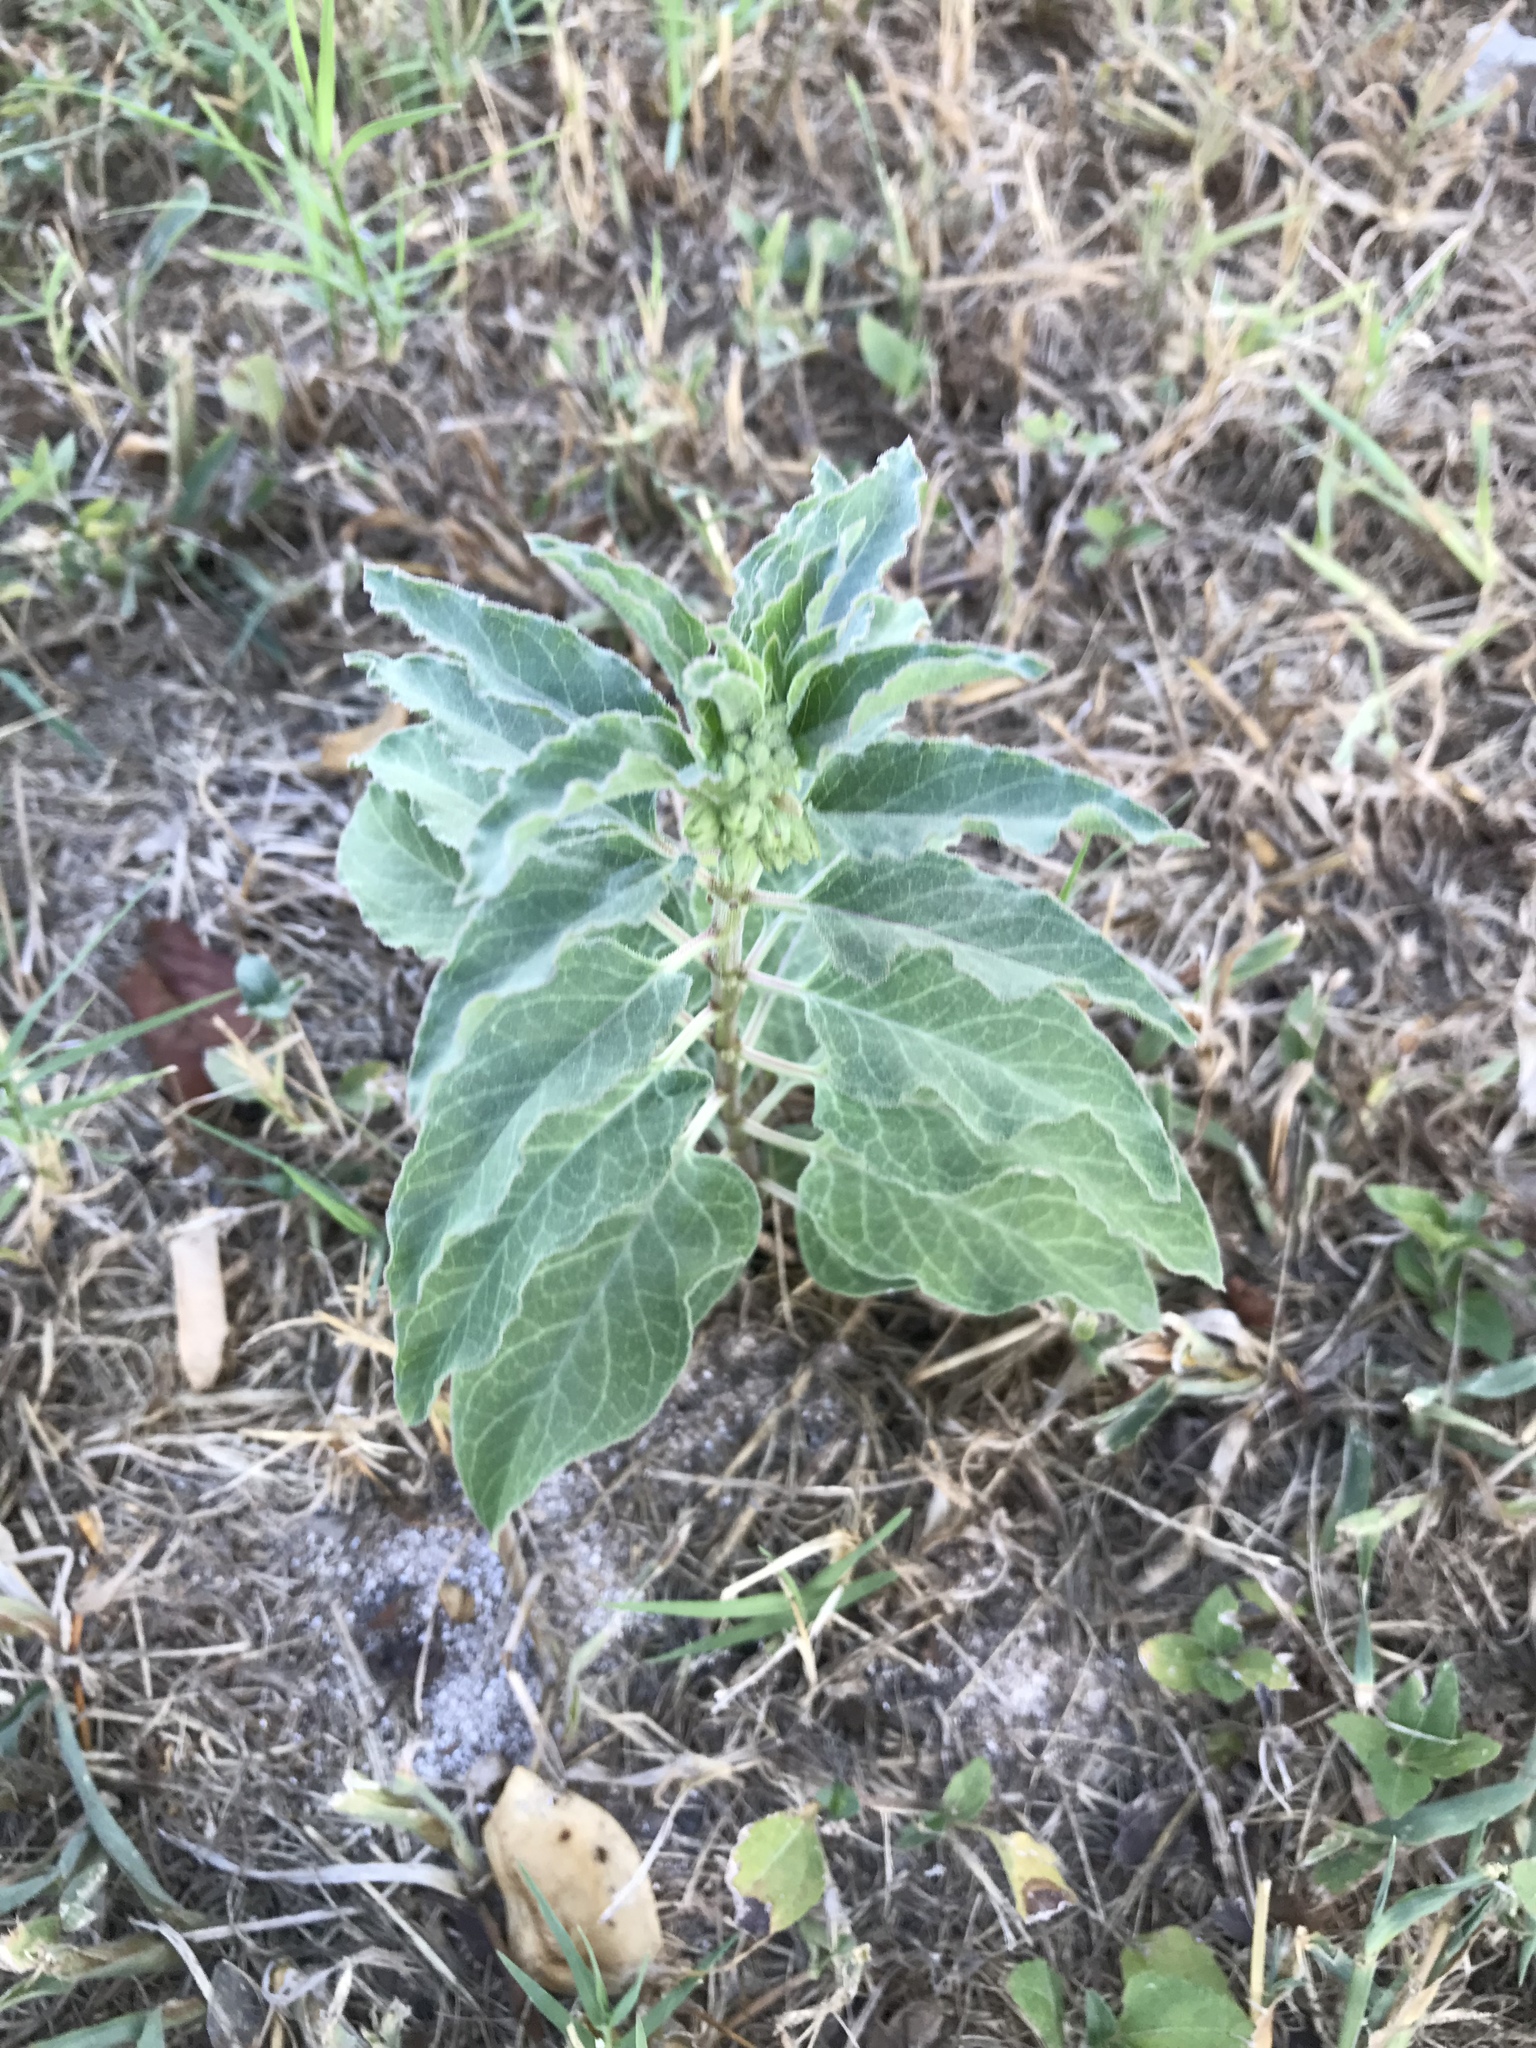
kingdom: Plantae
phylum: Tracheophyta
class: Magnoliopsida
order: Gentianales
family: Apocynaceae
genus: Asclepias
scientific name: Asclepias oenotheroides
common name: Zizotes milkweed
